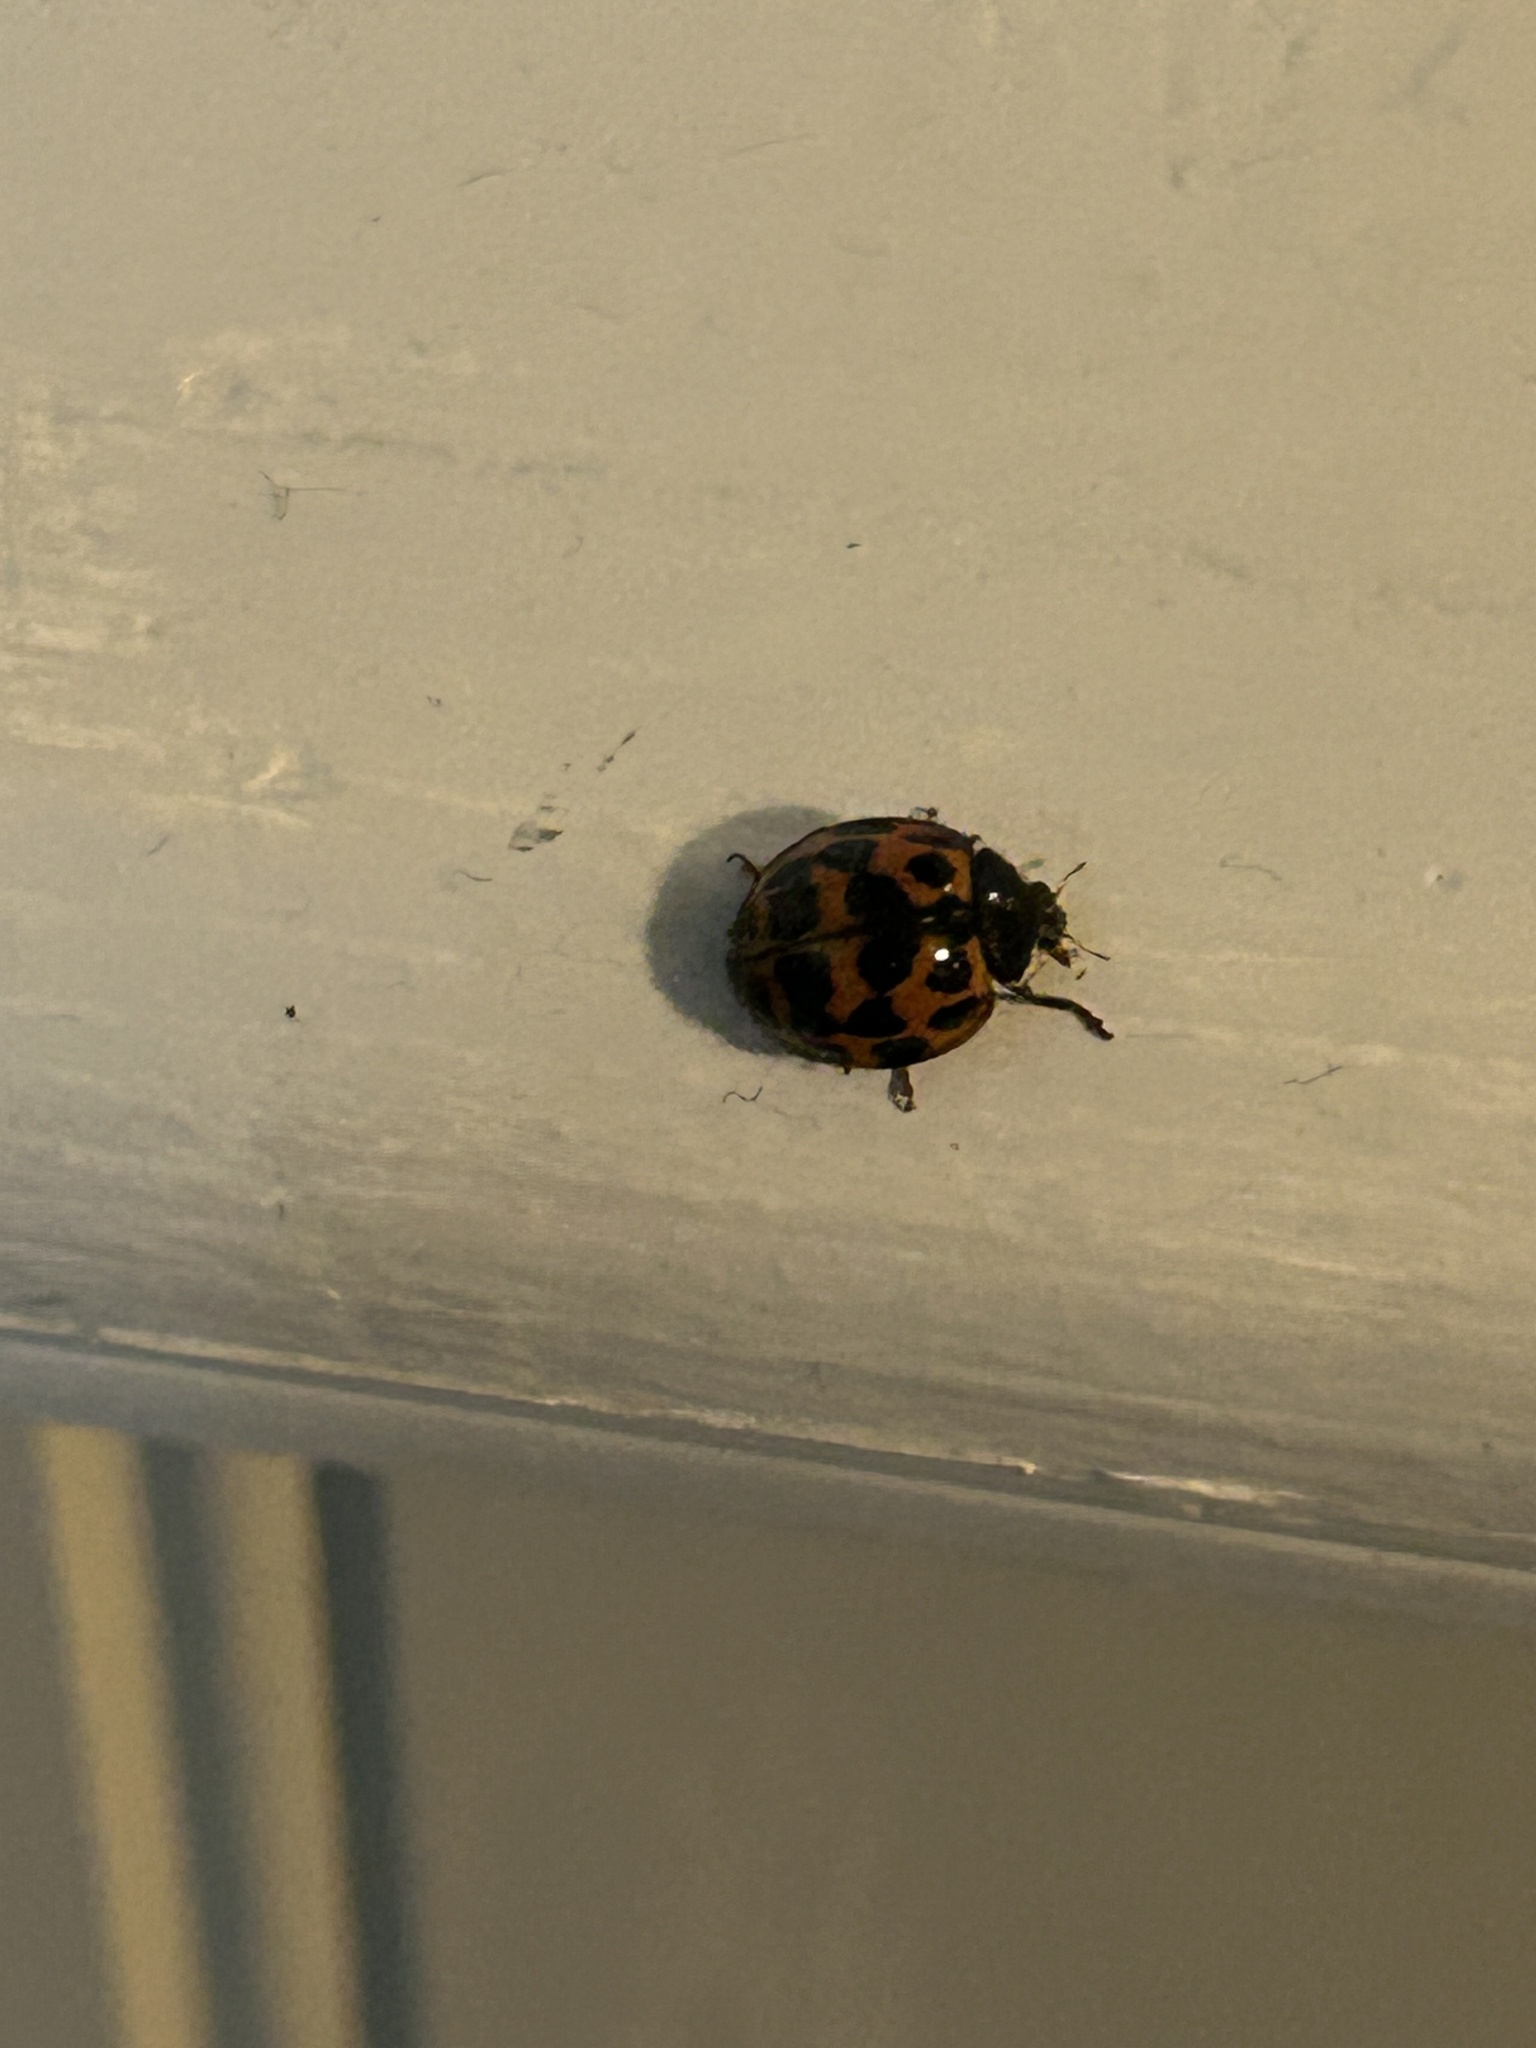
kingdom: Animalia
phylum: Arthropoda
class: Insecta
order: Coleoptera
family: Coccinellidae
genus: Harmonia
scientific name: Harmonia axyridis
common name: Harlequin ladybird
